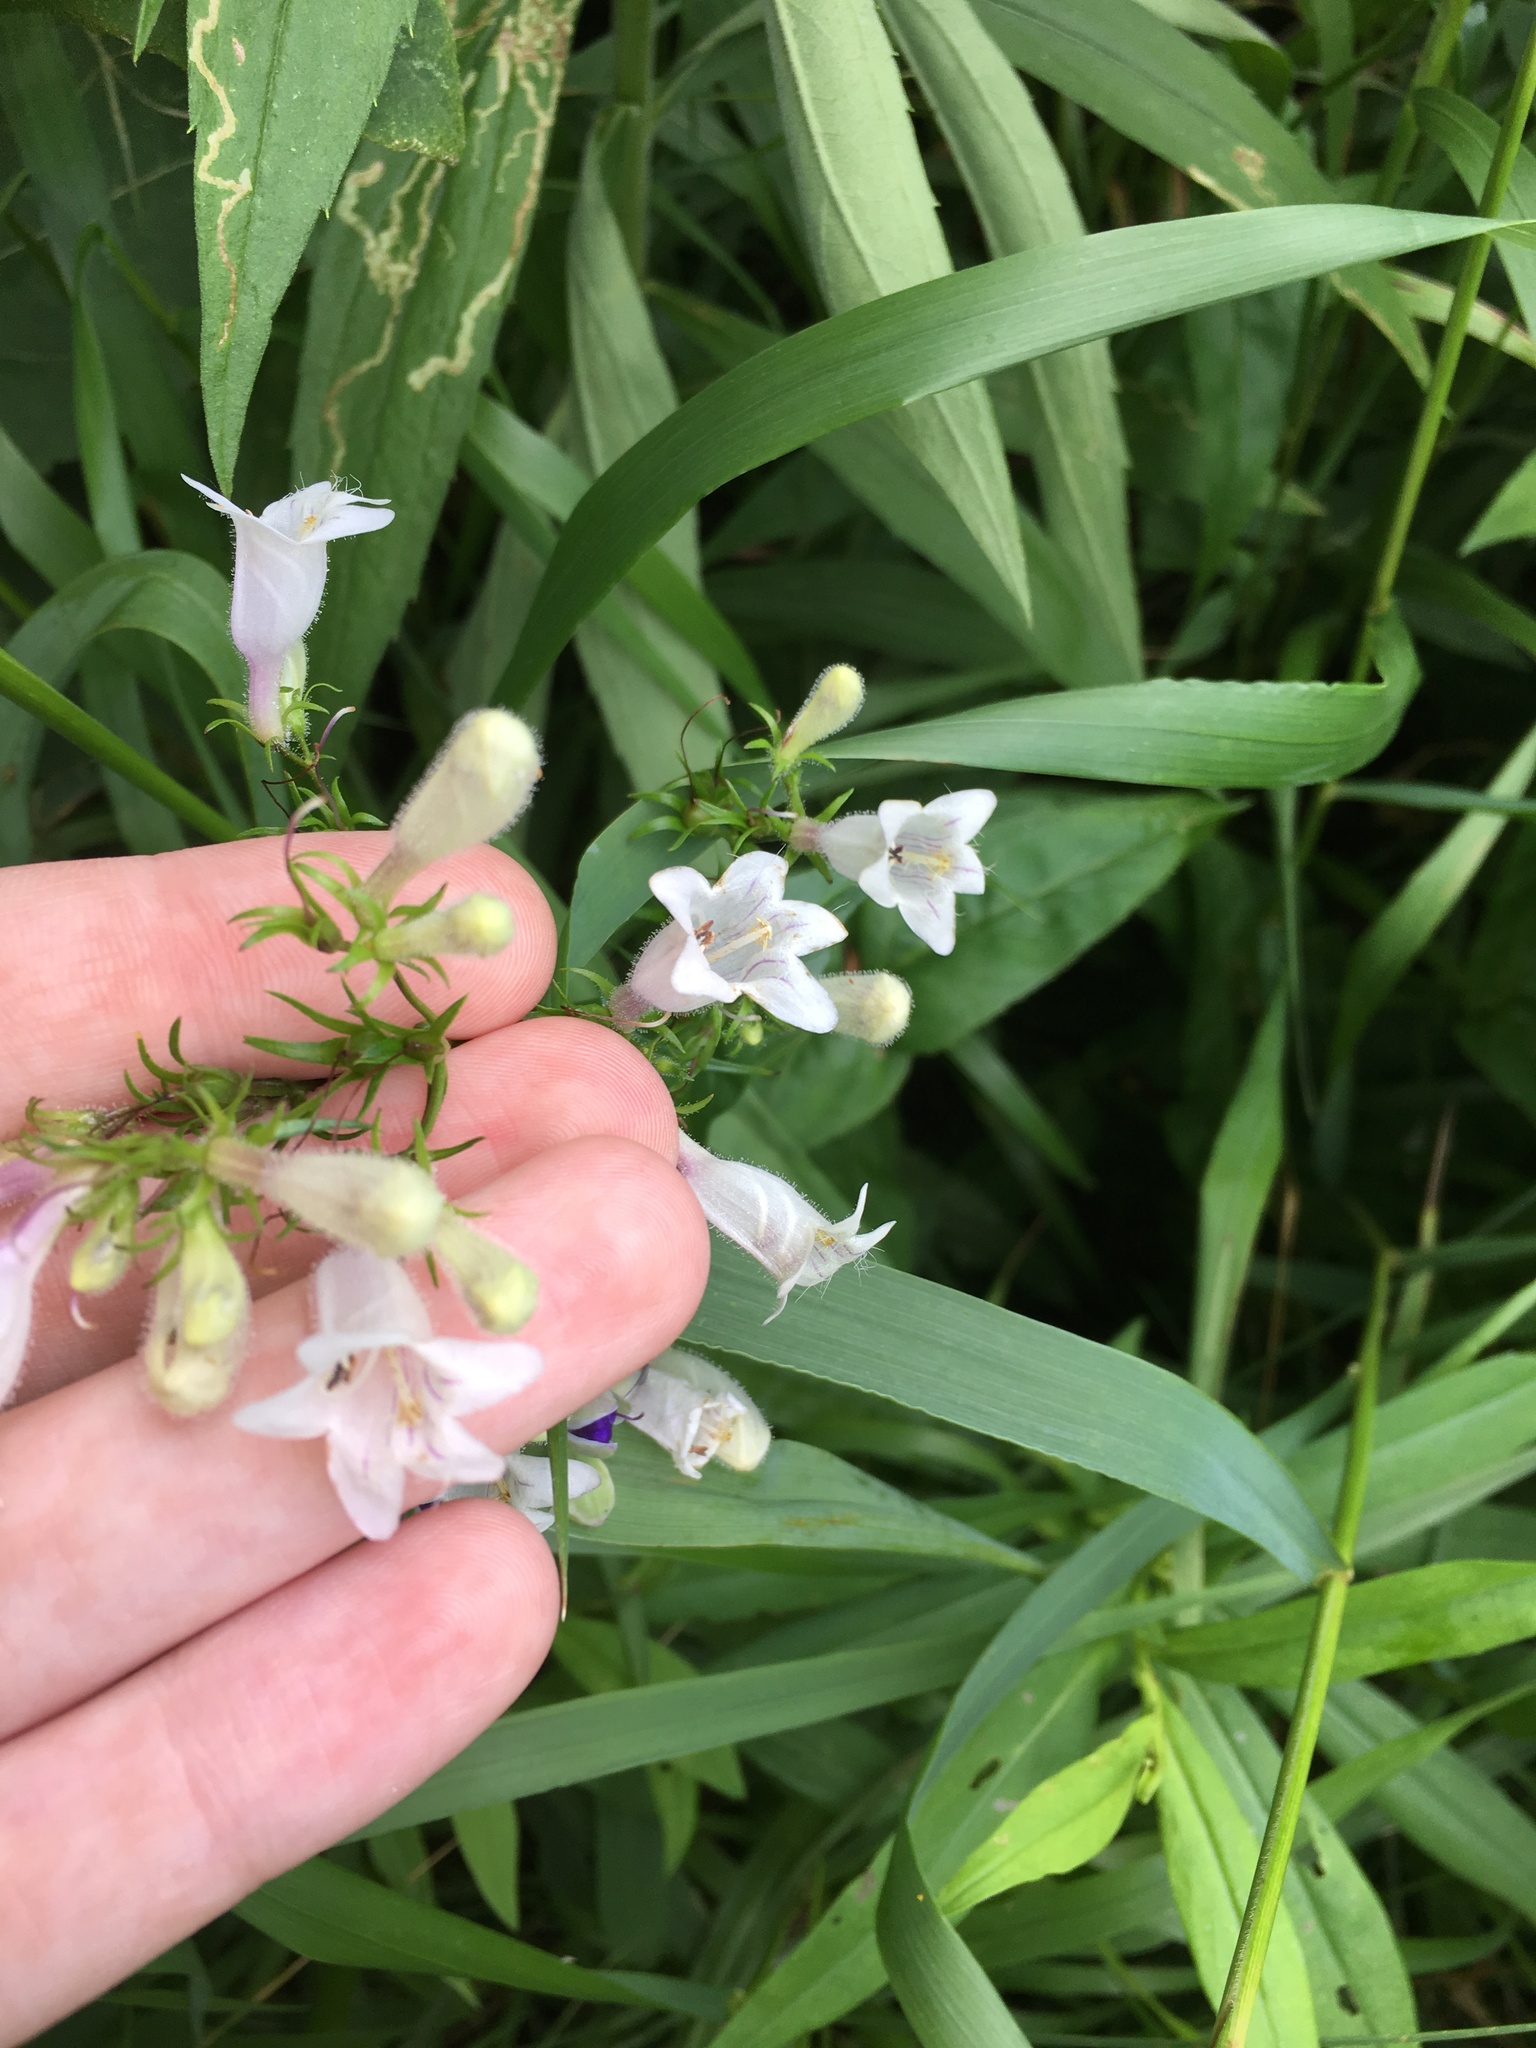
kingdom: Plantae
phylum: Tracheophyta
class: Magnoliopsida
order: Lamiales
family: Plantaginaceae
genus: Penstemon
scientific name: Penstemon digitalis
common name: Foxglove beardtongue
